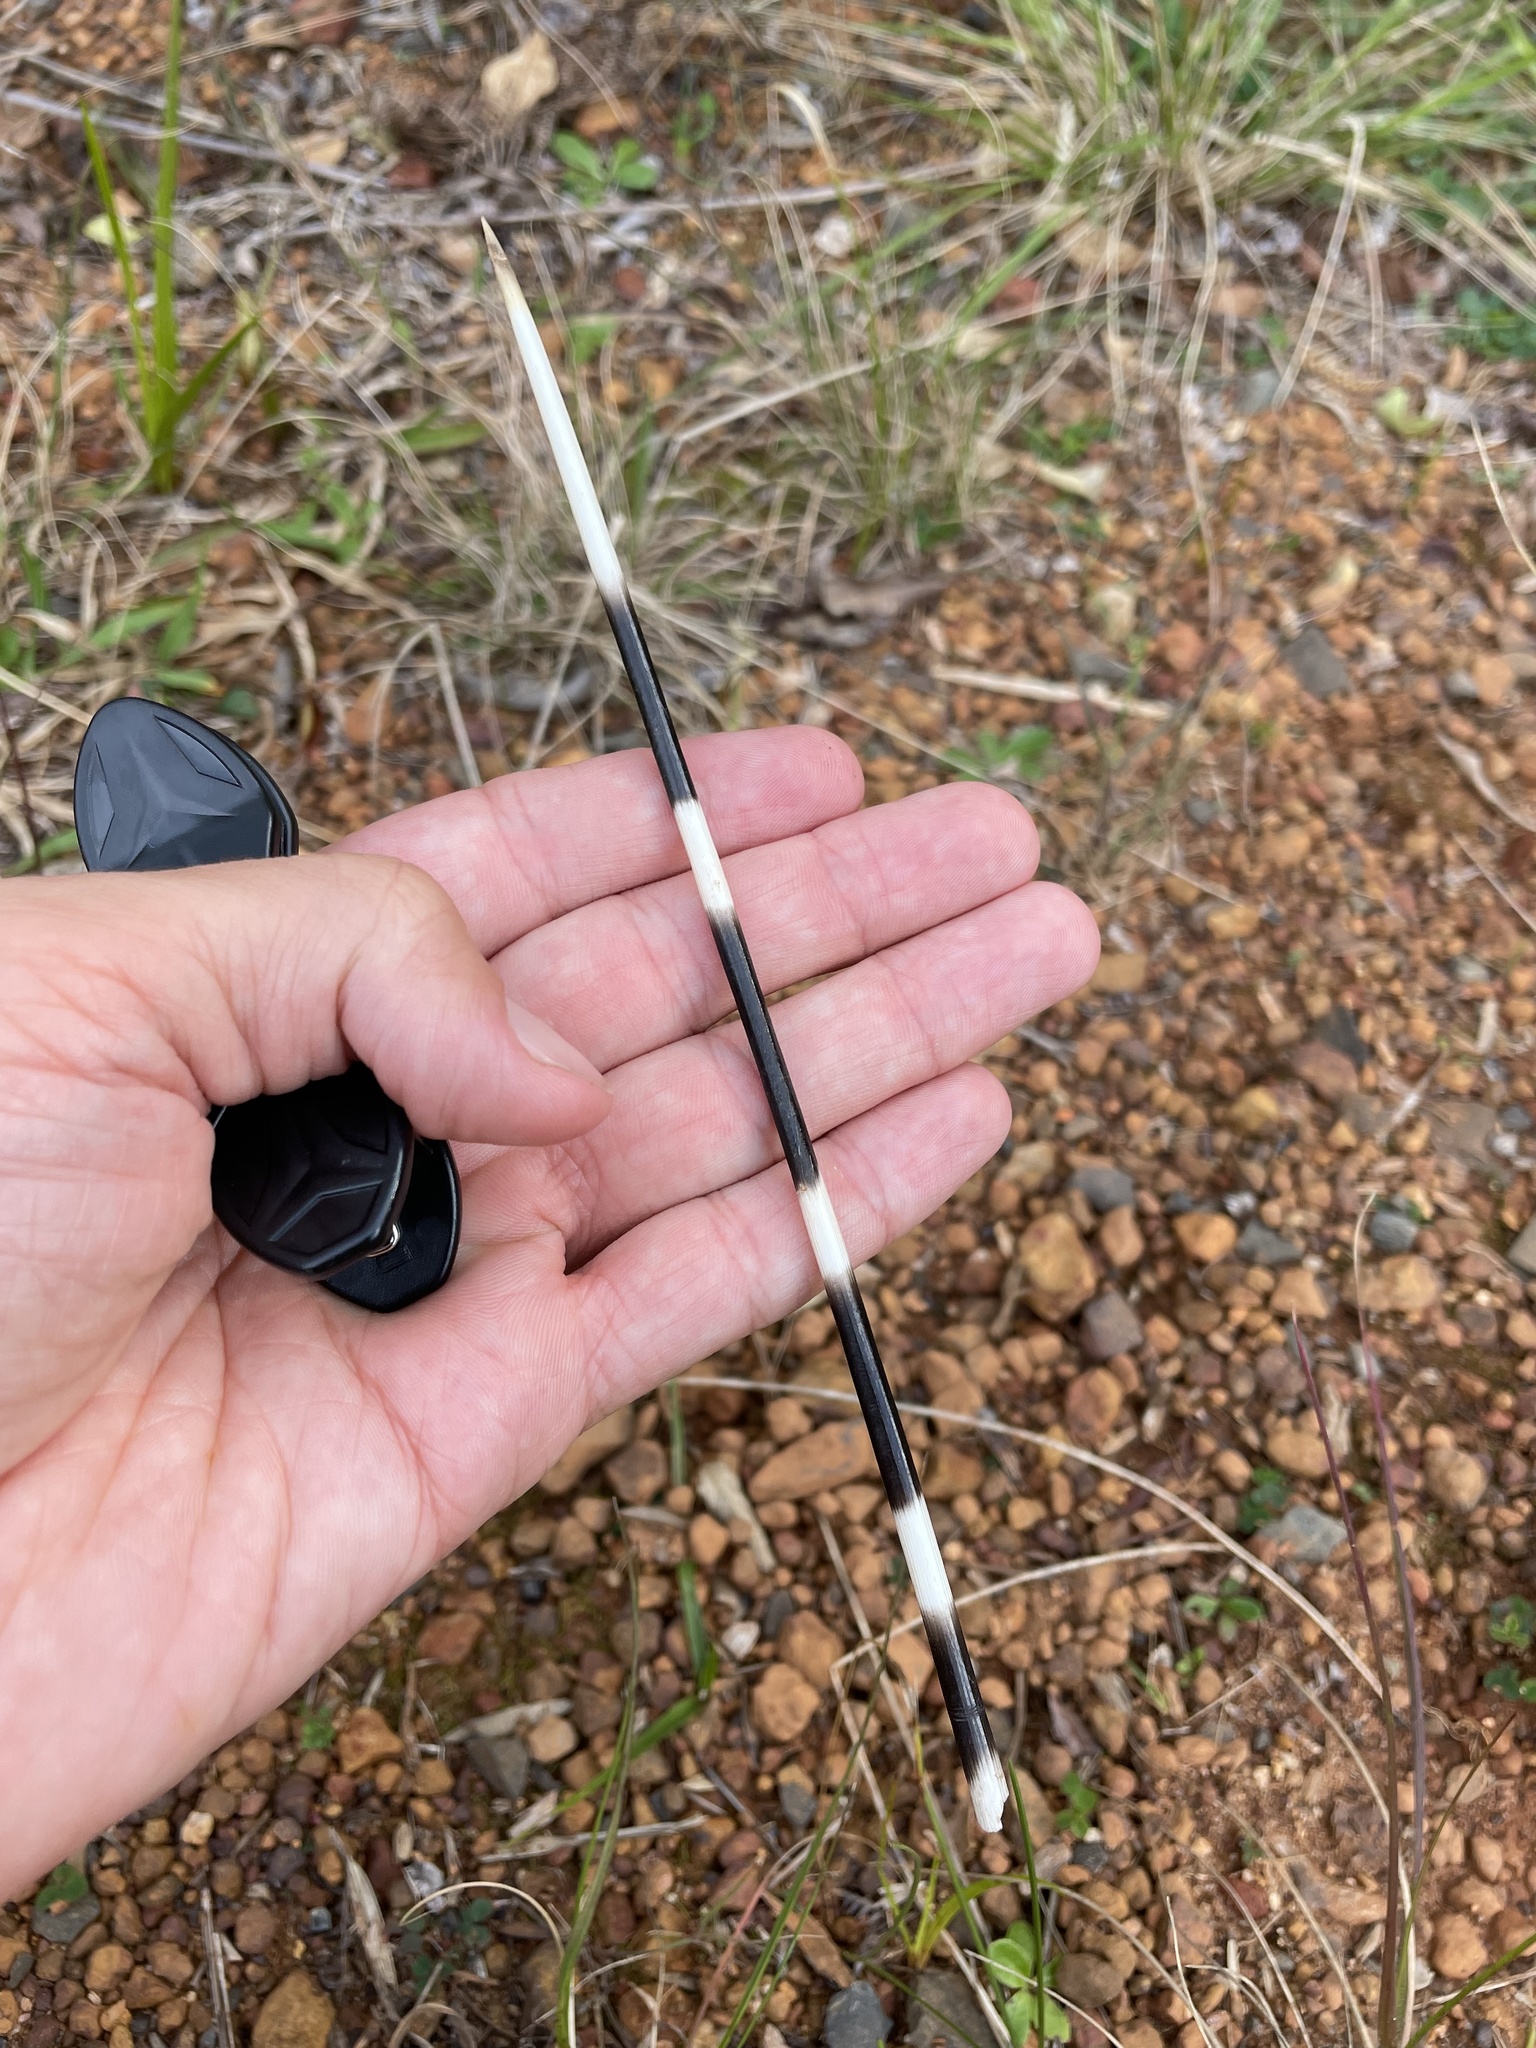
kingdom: Animalia
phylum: Chordata
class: Mammalia
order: Rodentia
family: Hystricidae
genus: Hystrix
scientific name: Hystrix africaeaustralis
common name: Cape porcupine
